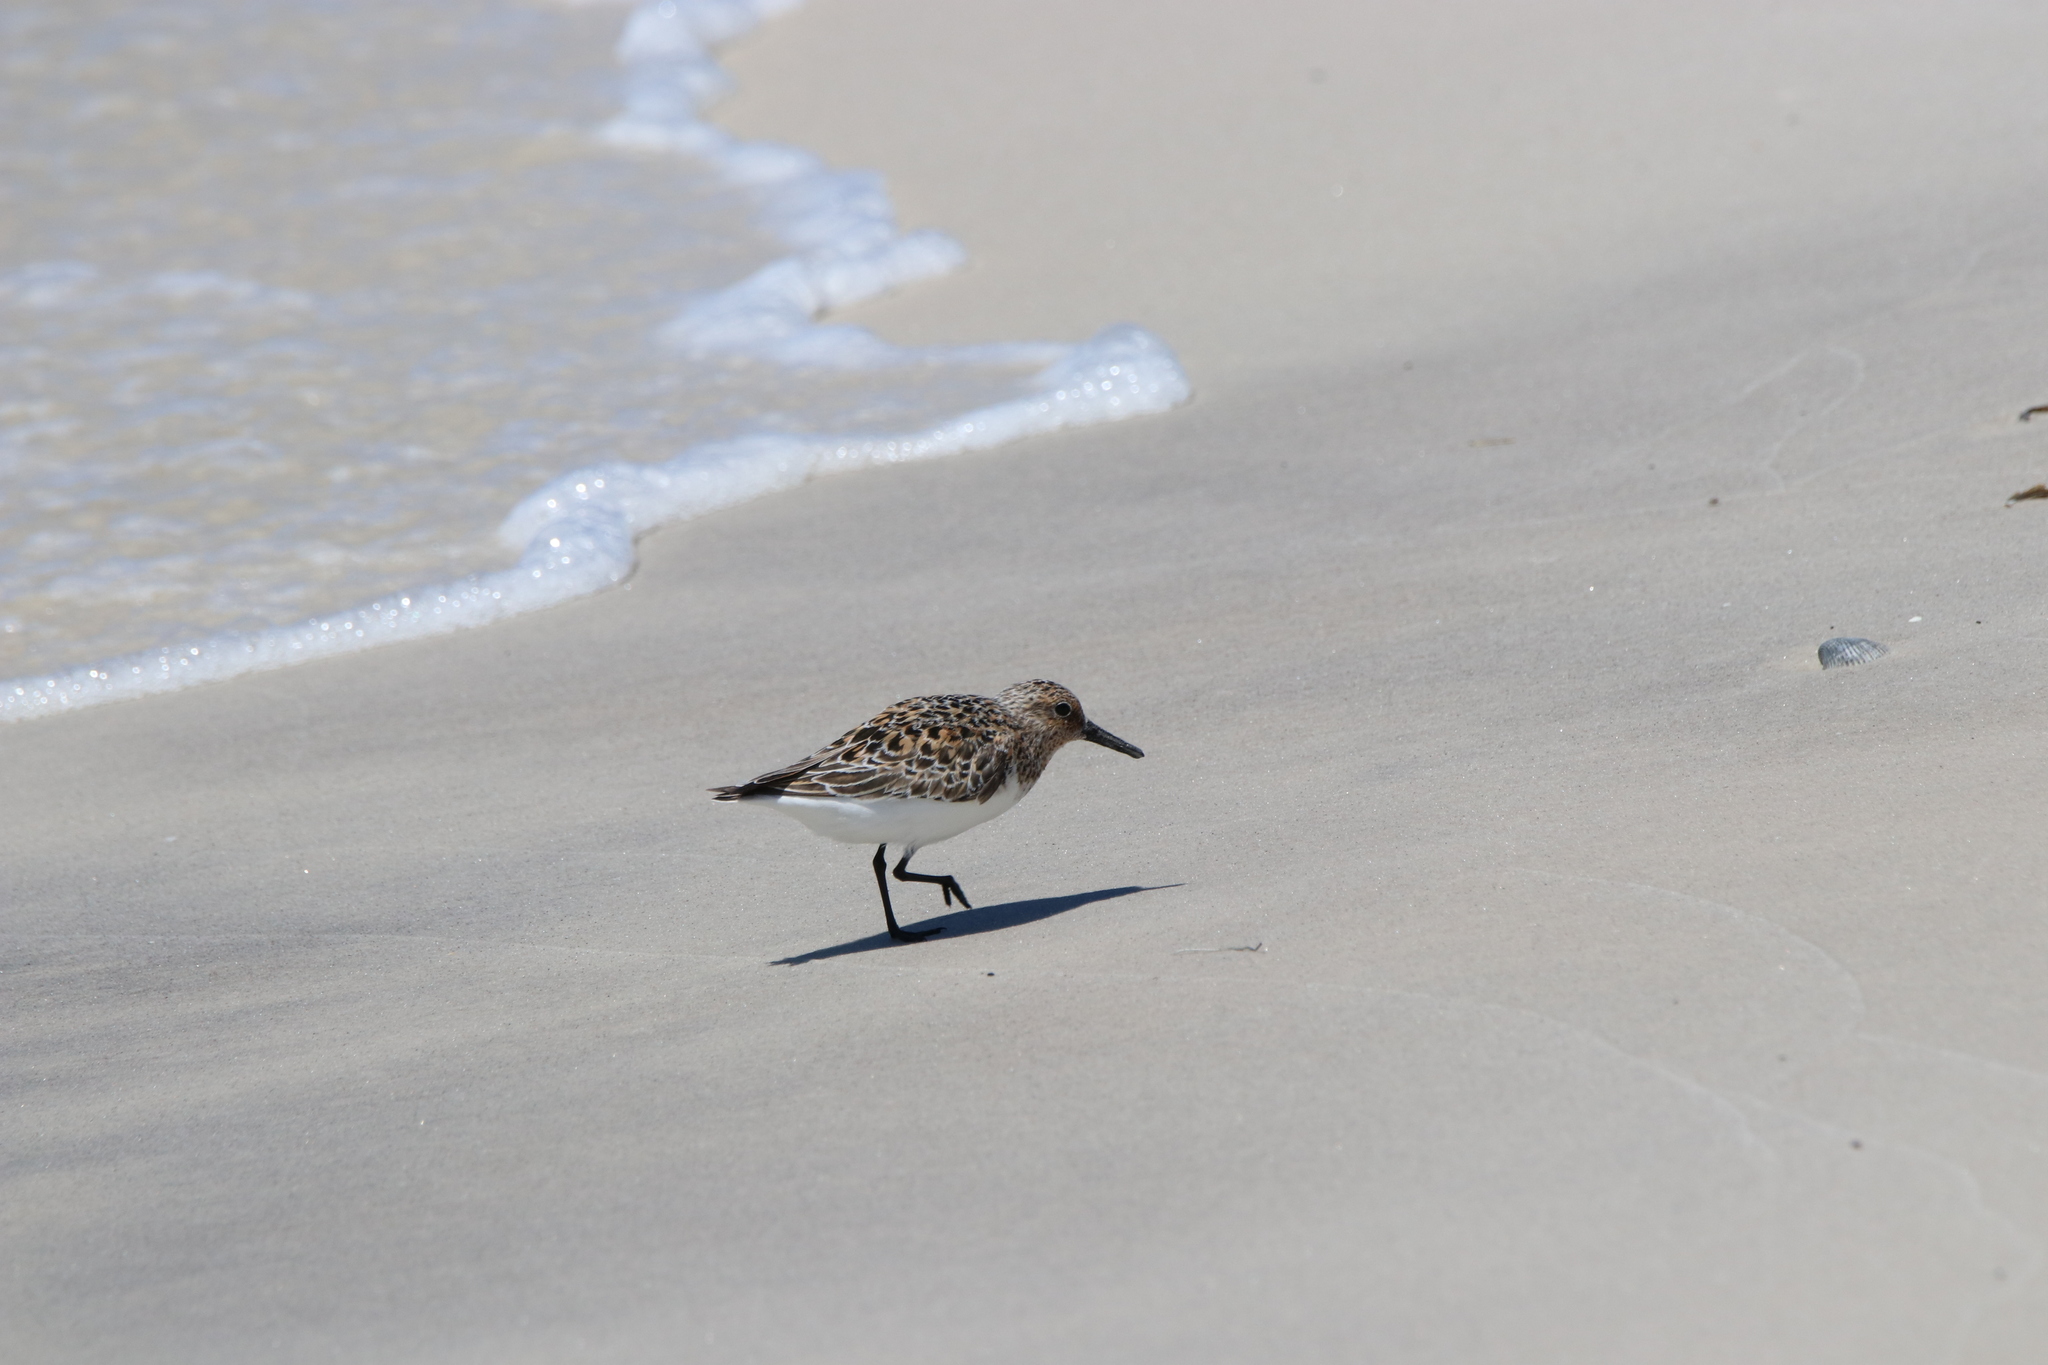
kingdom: Animalia
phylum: Chordata
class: Aves
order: Charadriiformes
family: Scolopacidae
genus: Calidris
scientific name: Calidris alba
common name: Sanderling
